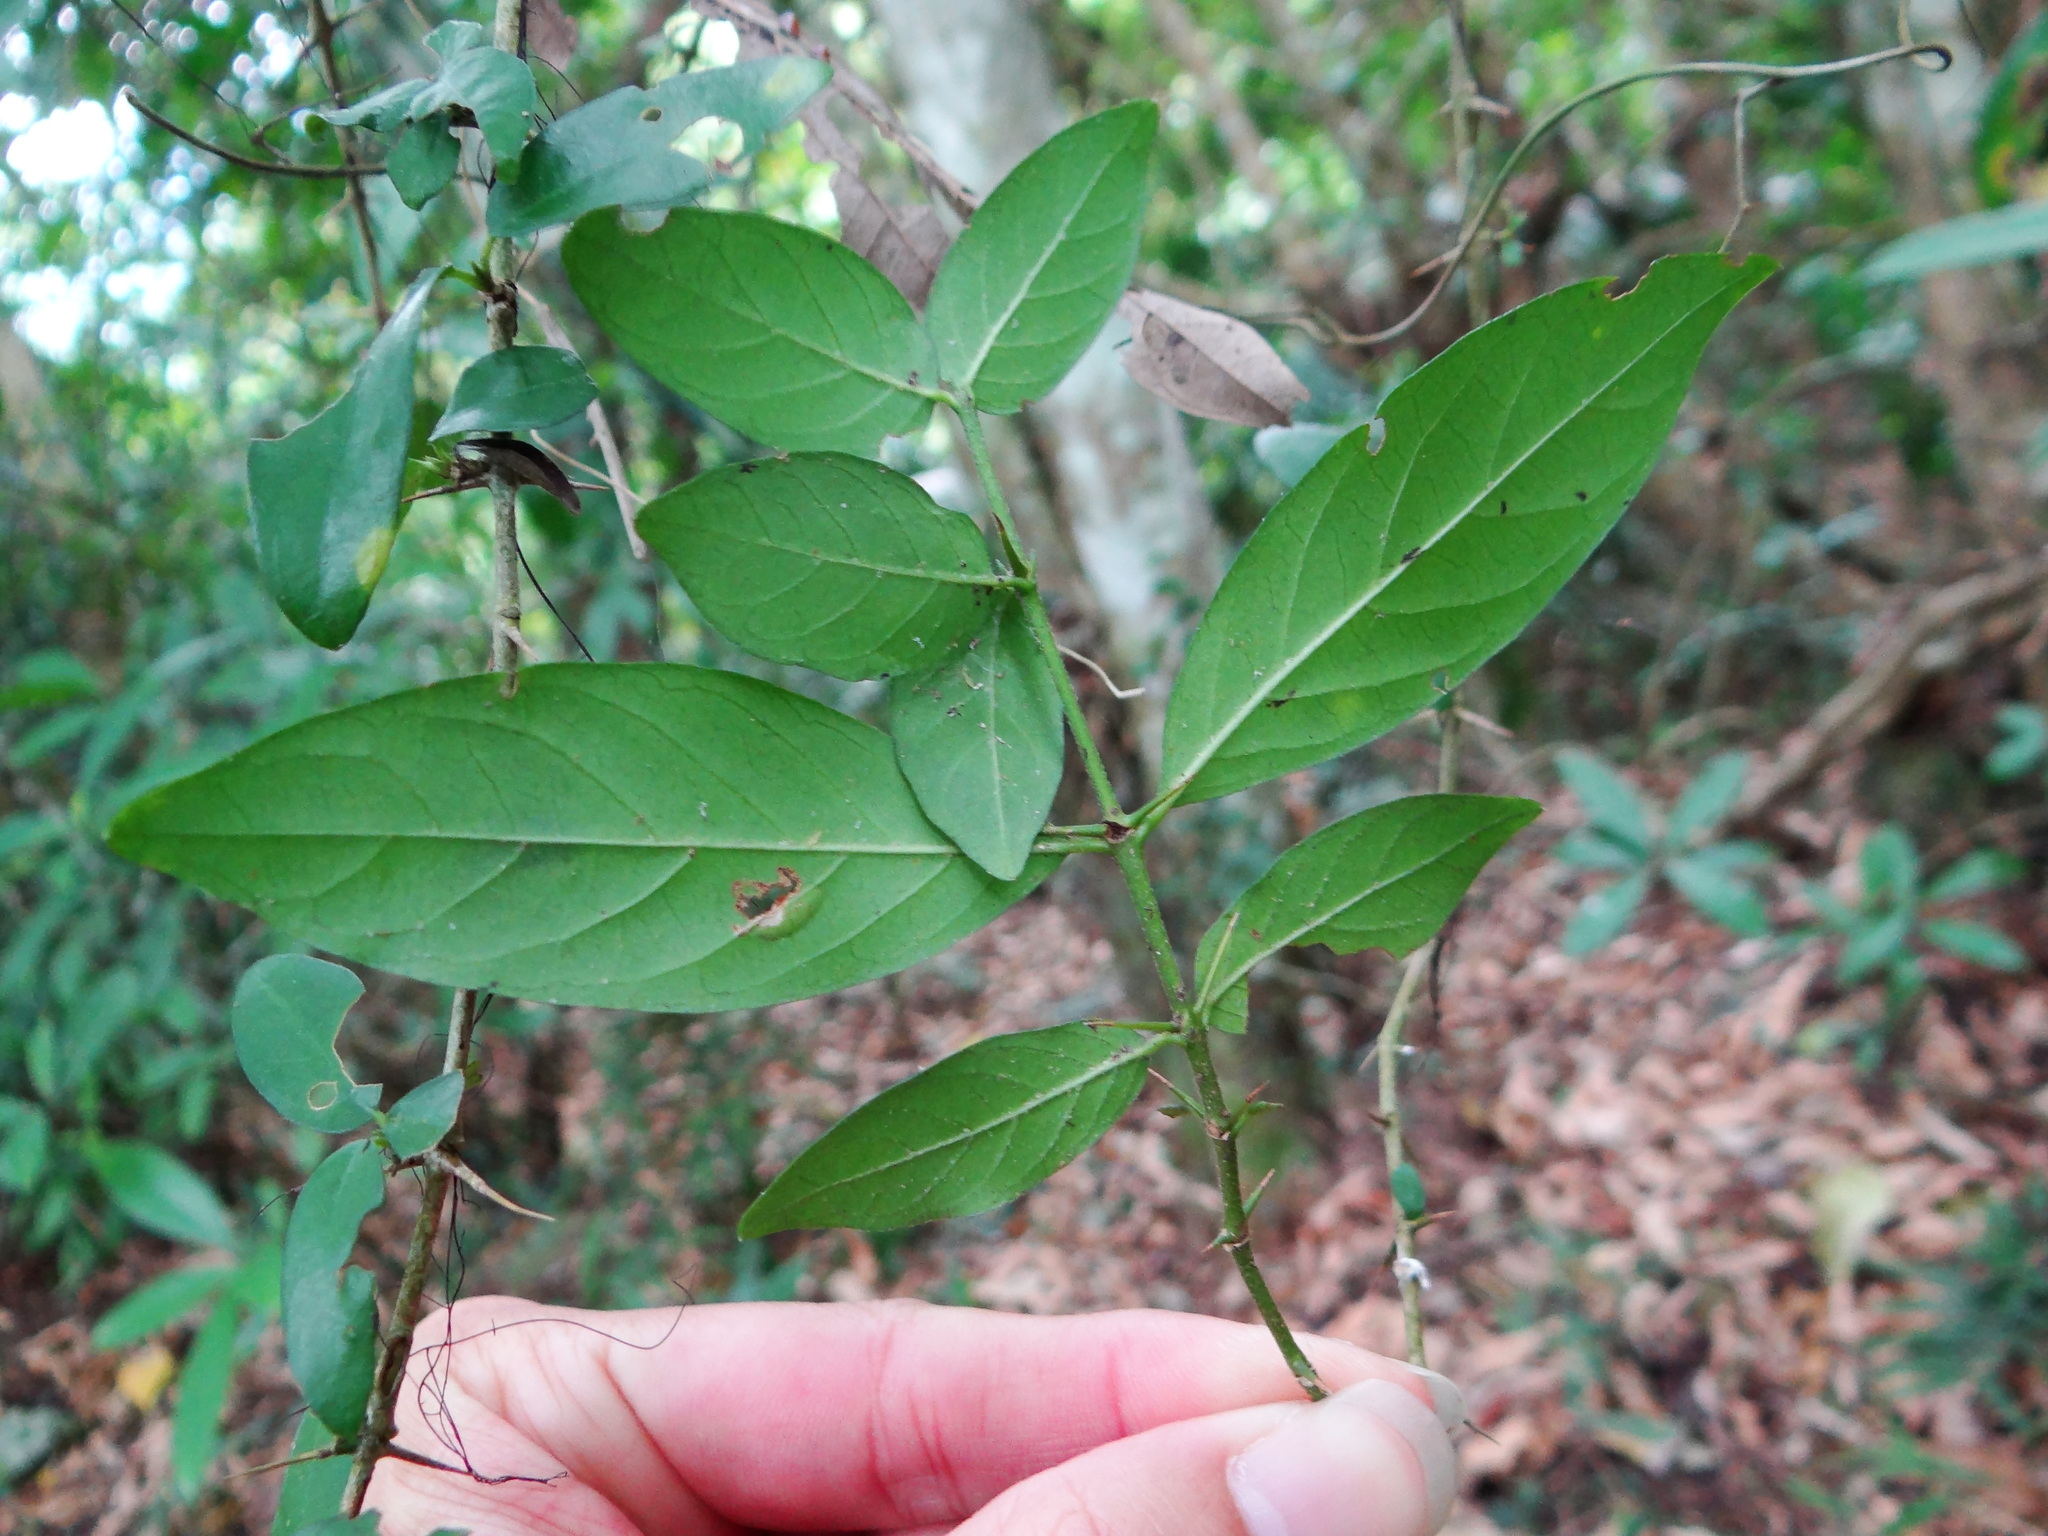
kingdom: Plantae
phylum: Tracheophyta
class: Magnoliopsida
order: Gentianales
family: Rubiaceae
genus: Benkara
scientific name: Benkara sinensis
